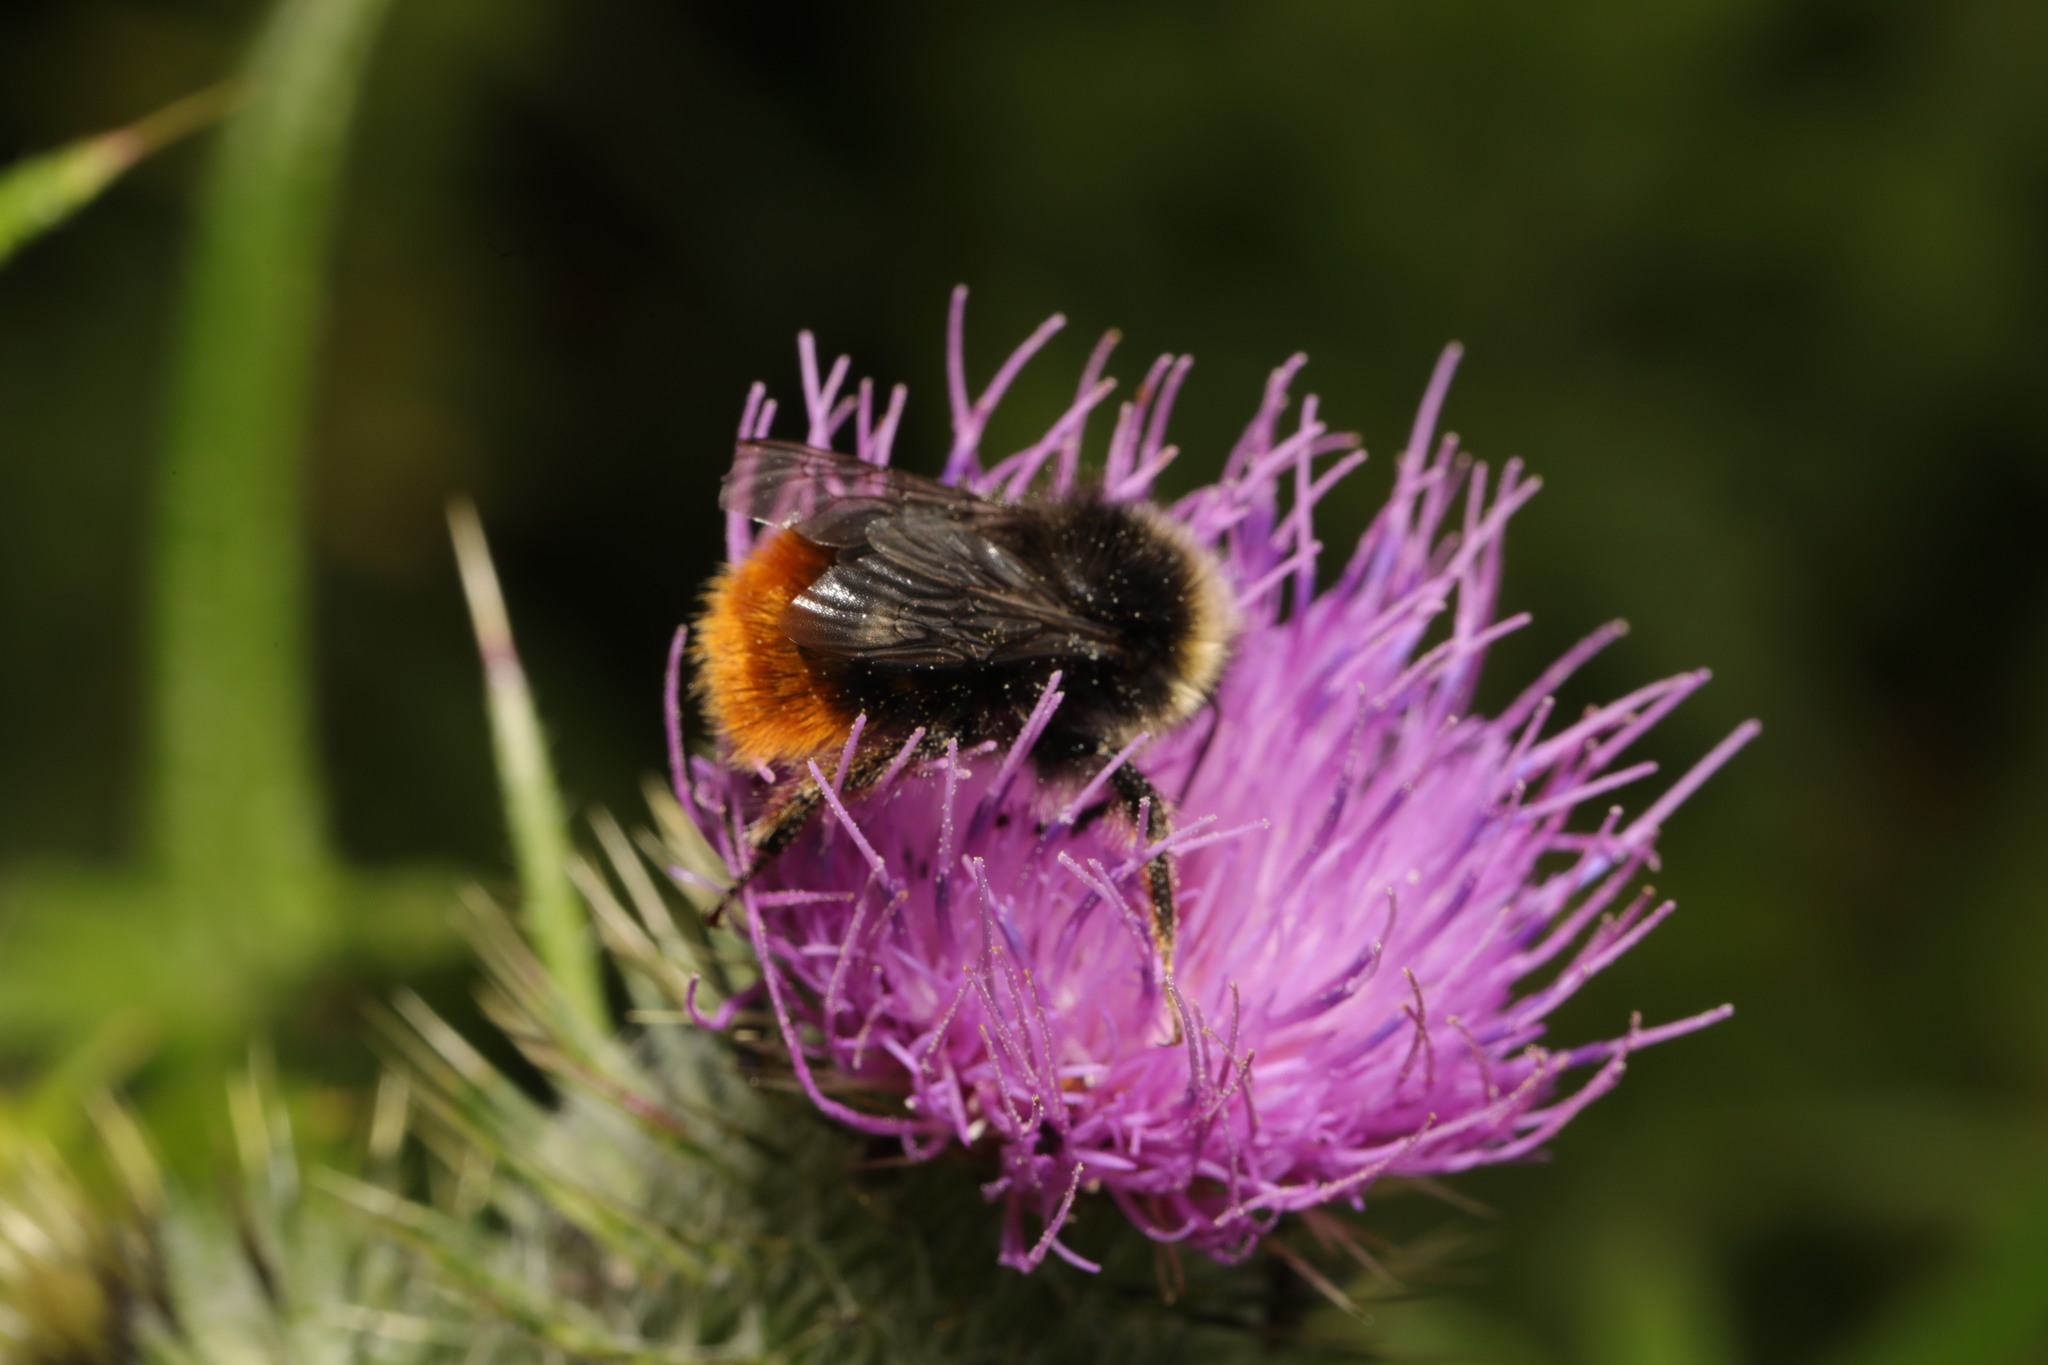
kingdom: Animalia
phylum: Arthropoda
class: Insecta
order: Hymenoptera
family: Apidae
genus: Bombus
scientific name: Bombus lapidarius
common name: Large red-tailed humble-bee
